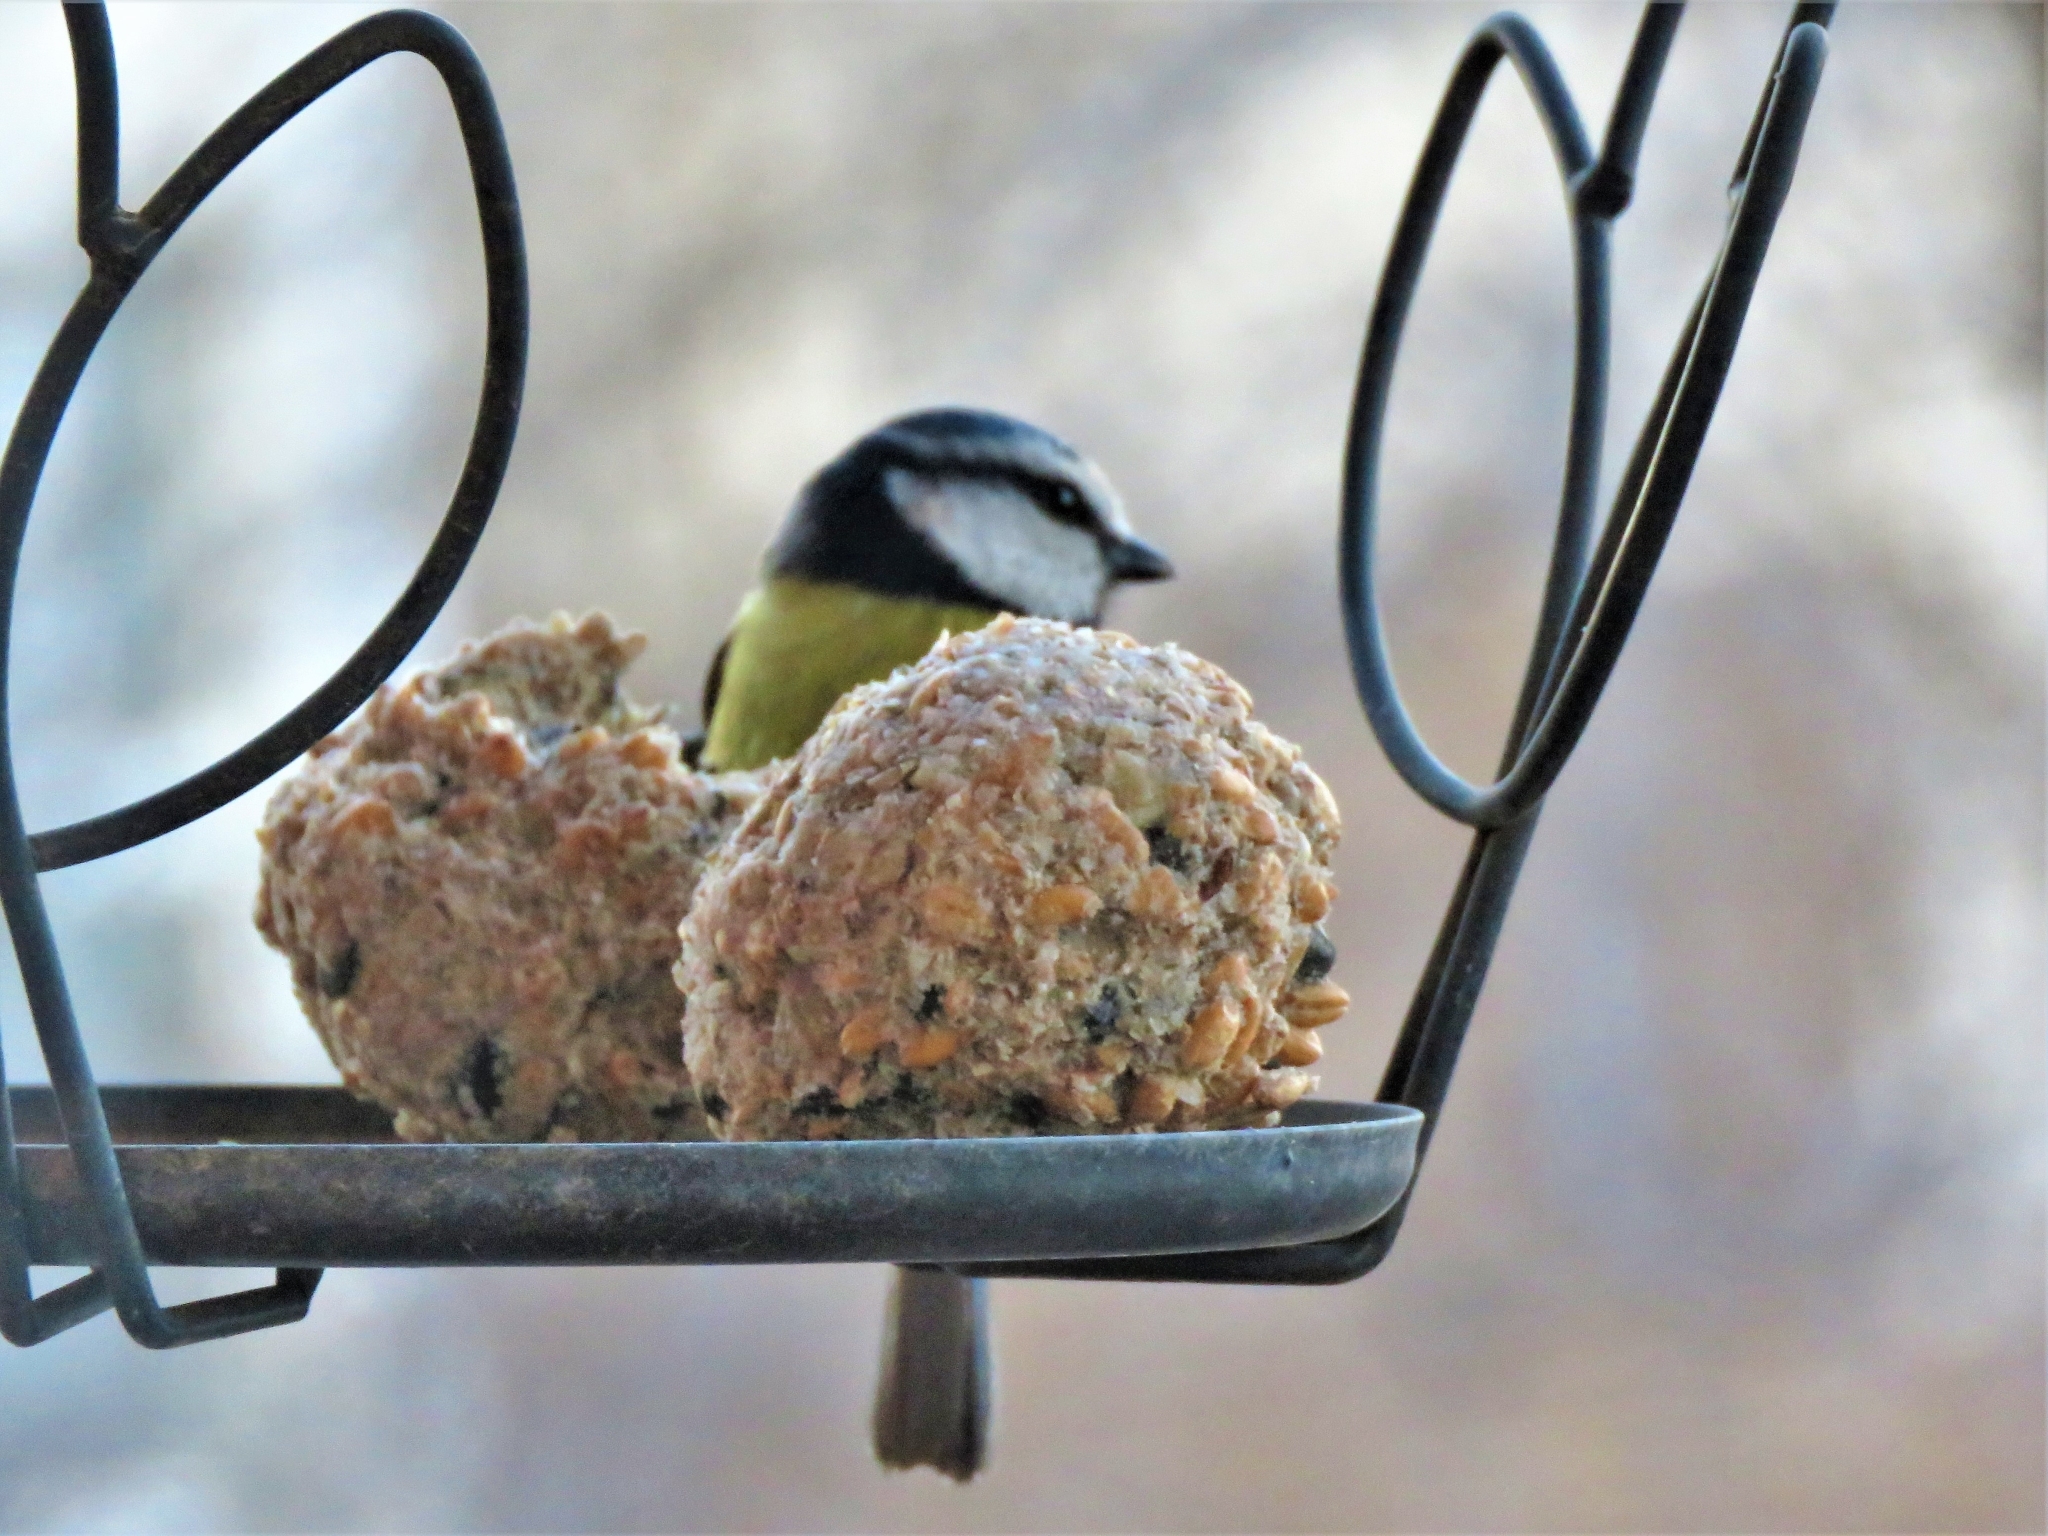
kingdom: Animalia
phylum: Chordata
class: Aves
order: Passeriformes
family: Paridae
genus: Cyanistes
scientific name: Cyanistes caeruleus
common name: Eurasian blue tit
